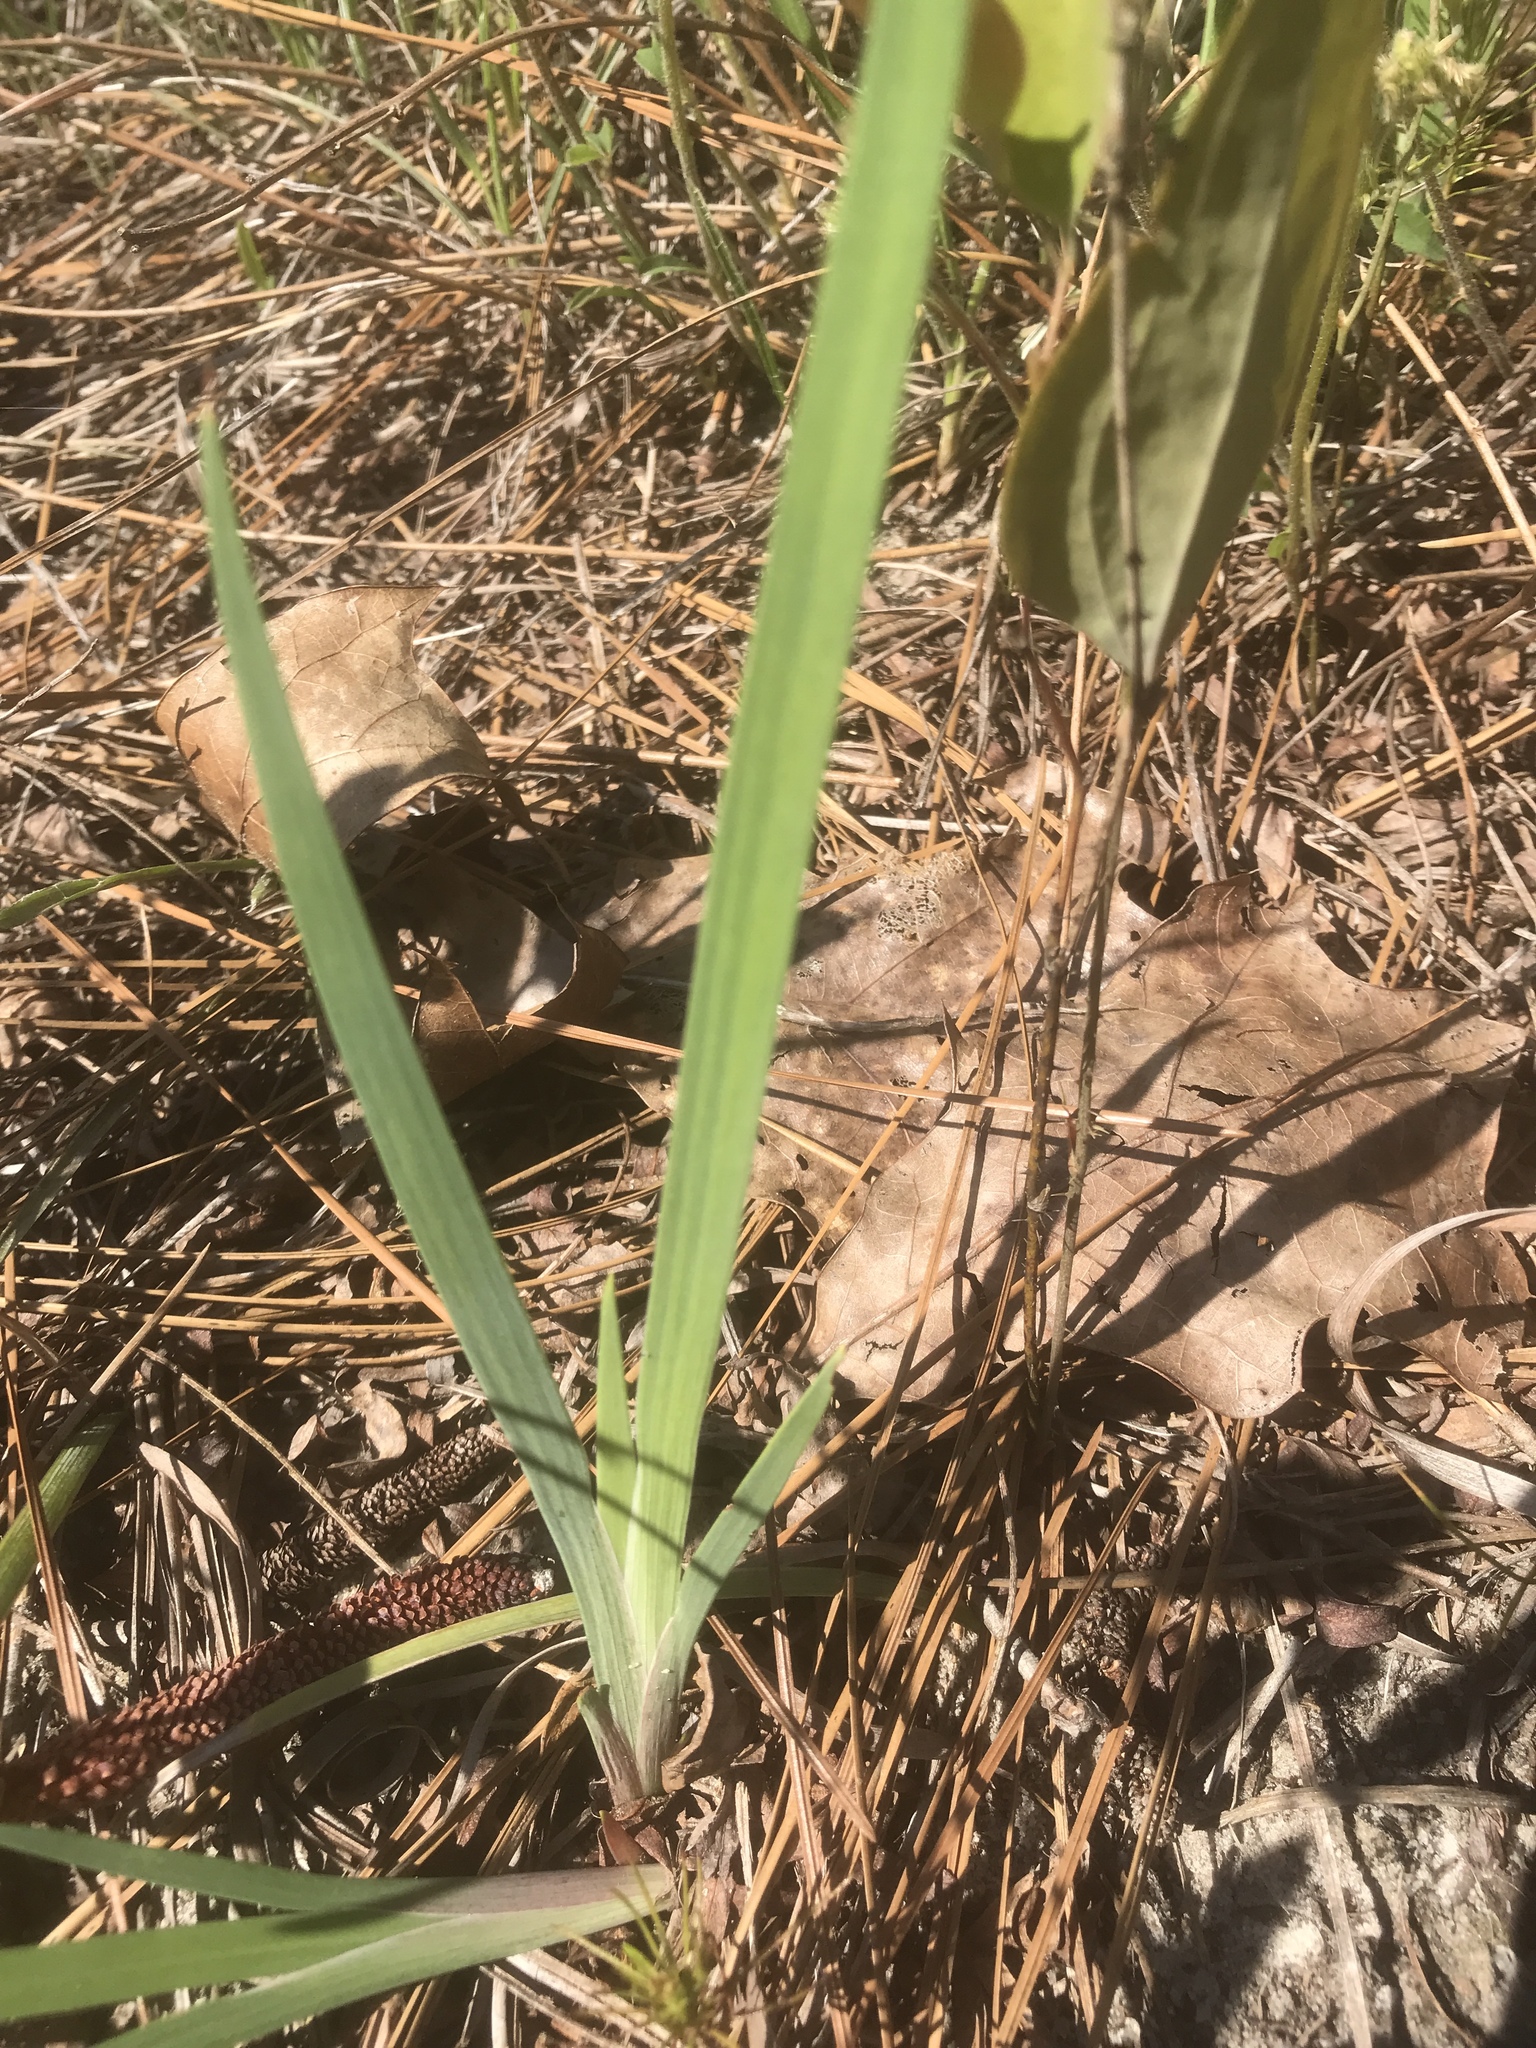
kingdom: Plantae
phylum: Tracheophyta
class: Liliopsida
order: Asparagales
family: Iridaceae
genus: Iris
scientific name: Iris verna
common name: Dwarf iris
